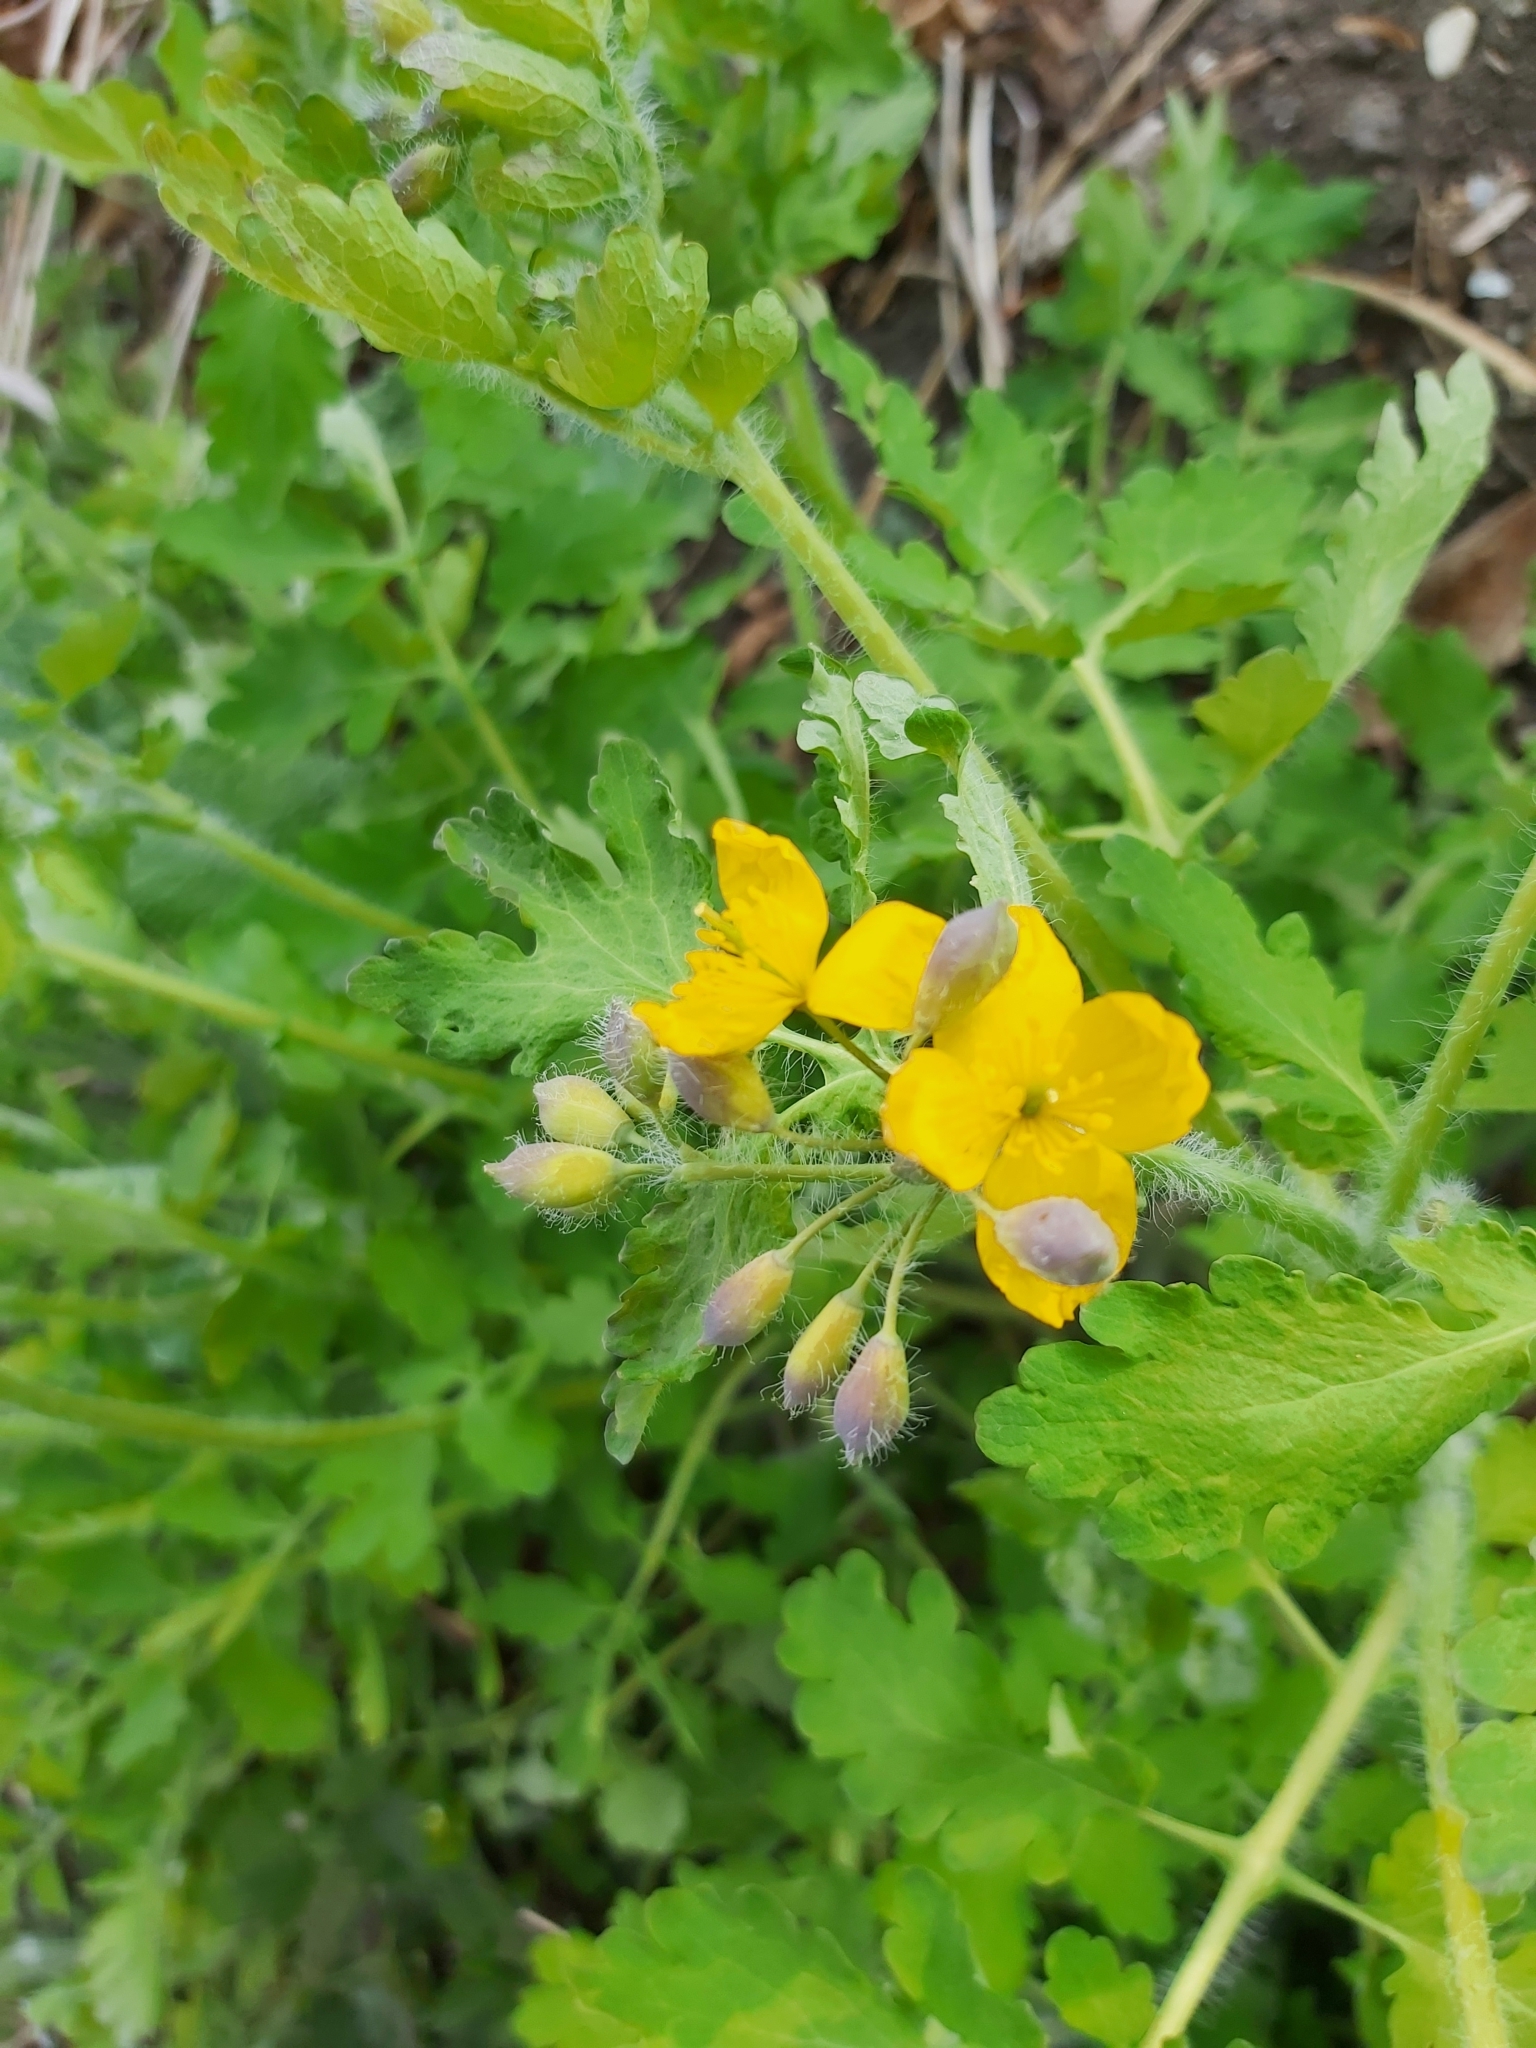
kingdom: Plantae
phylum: Tracheophyta
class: Magnoliopsida
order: Ranunculales
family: Papaveraceae
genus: Chelidonium
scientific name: Chelidonium majus
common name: Greater celandine
